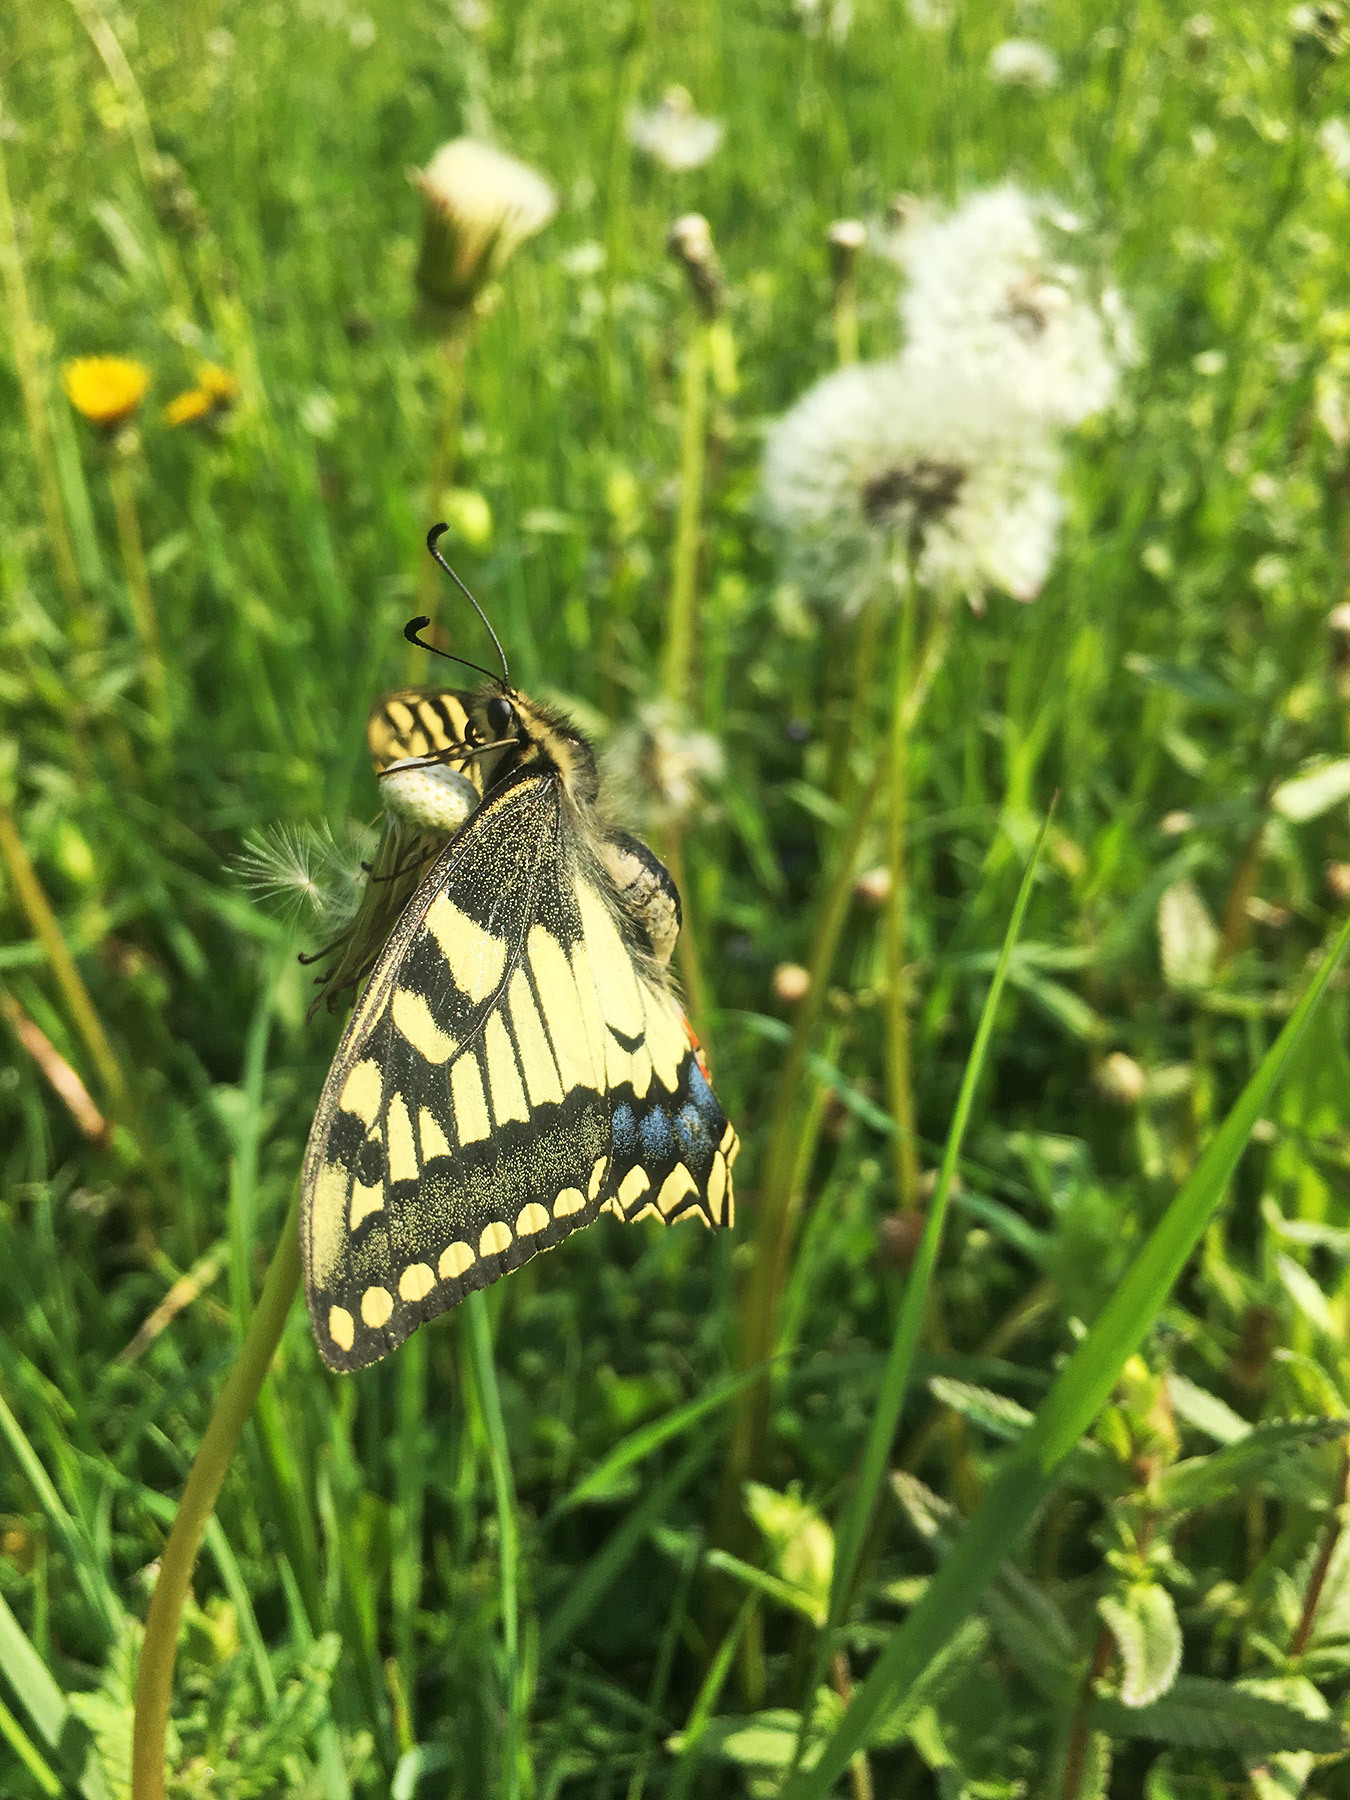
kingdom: Animalia
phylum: Arthropoda
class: Insecta
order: Lepidoptera
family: Papilionidae
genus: Papilio
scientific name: Papilio machaon
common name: Swallowtail
